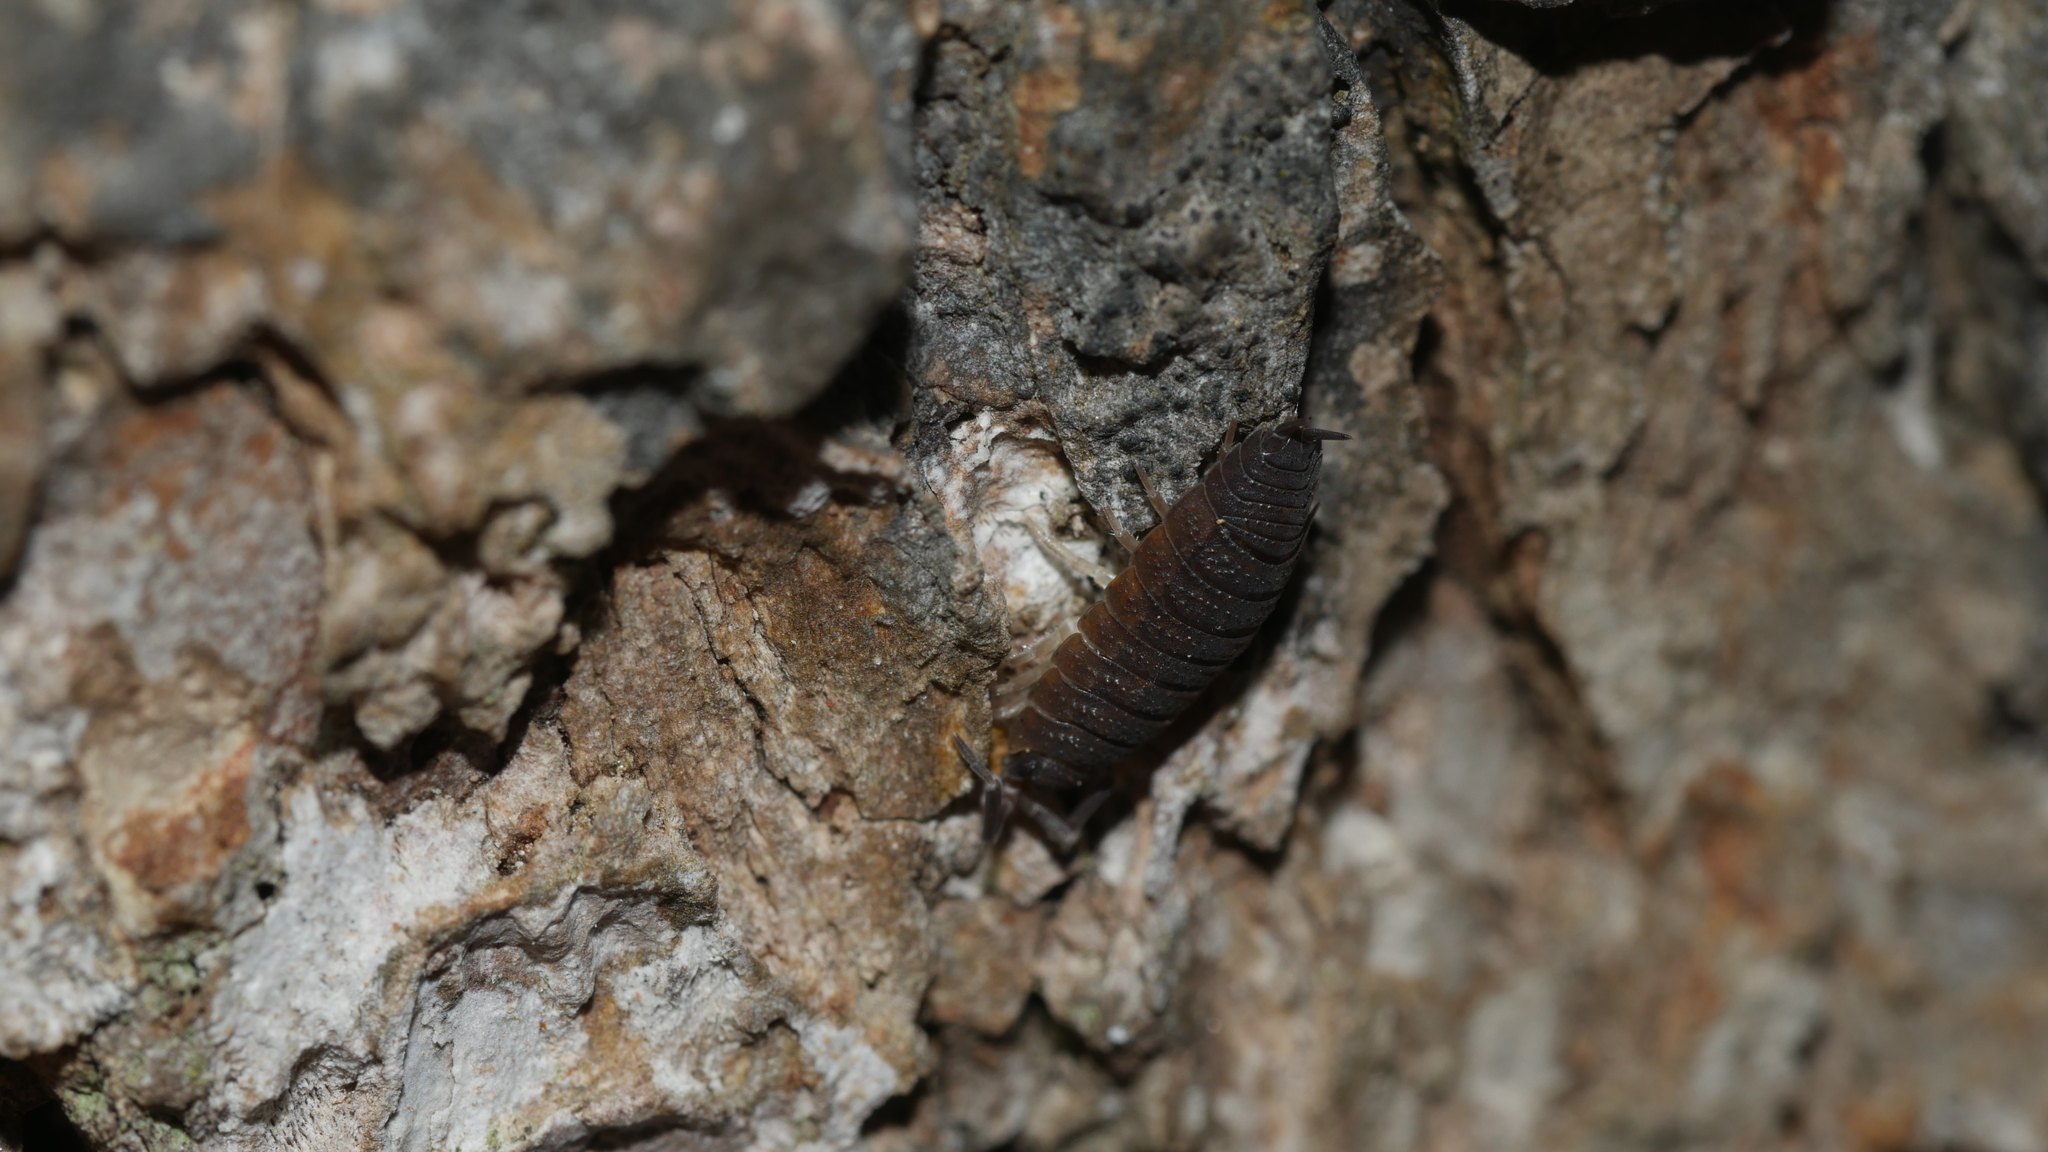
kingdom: Animalia
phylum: Arthropoda
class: Malacostraca
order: Isopoda
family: Porcellionidae
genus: Porcellio
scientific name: Porcellio scaber
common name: Common rough woodlouse
